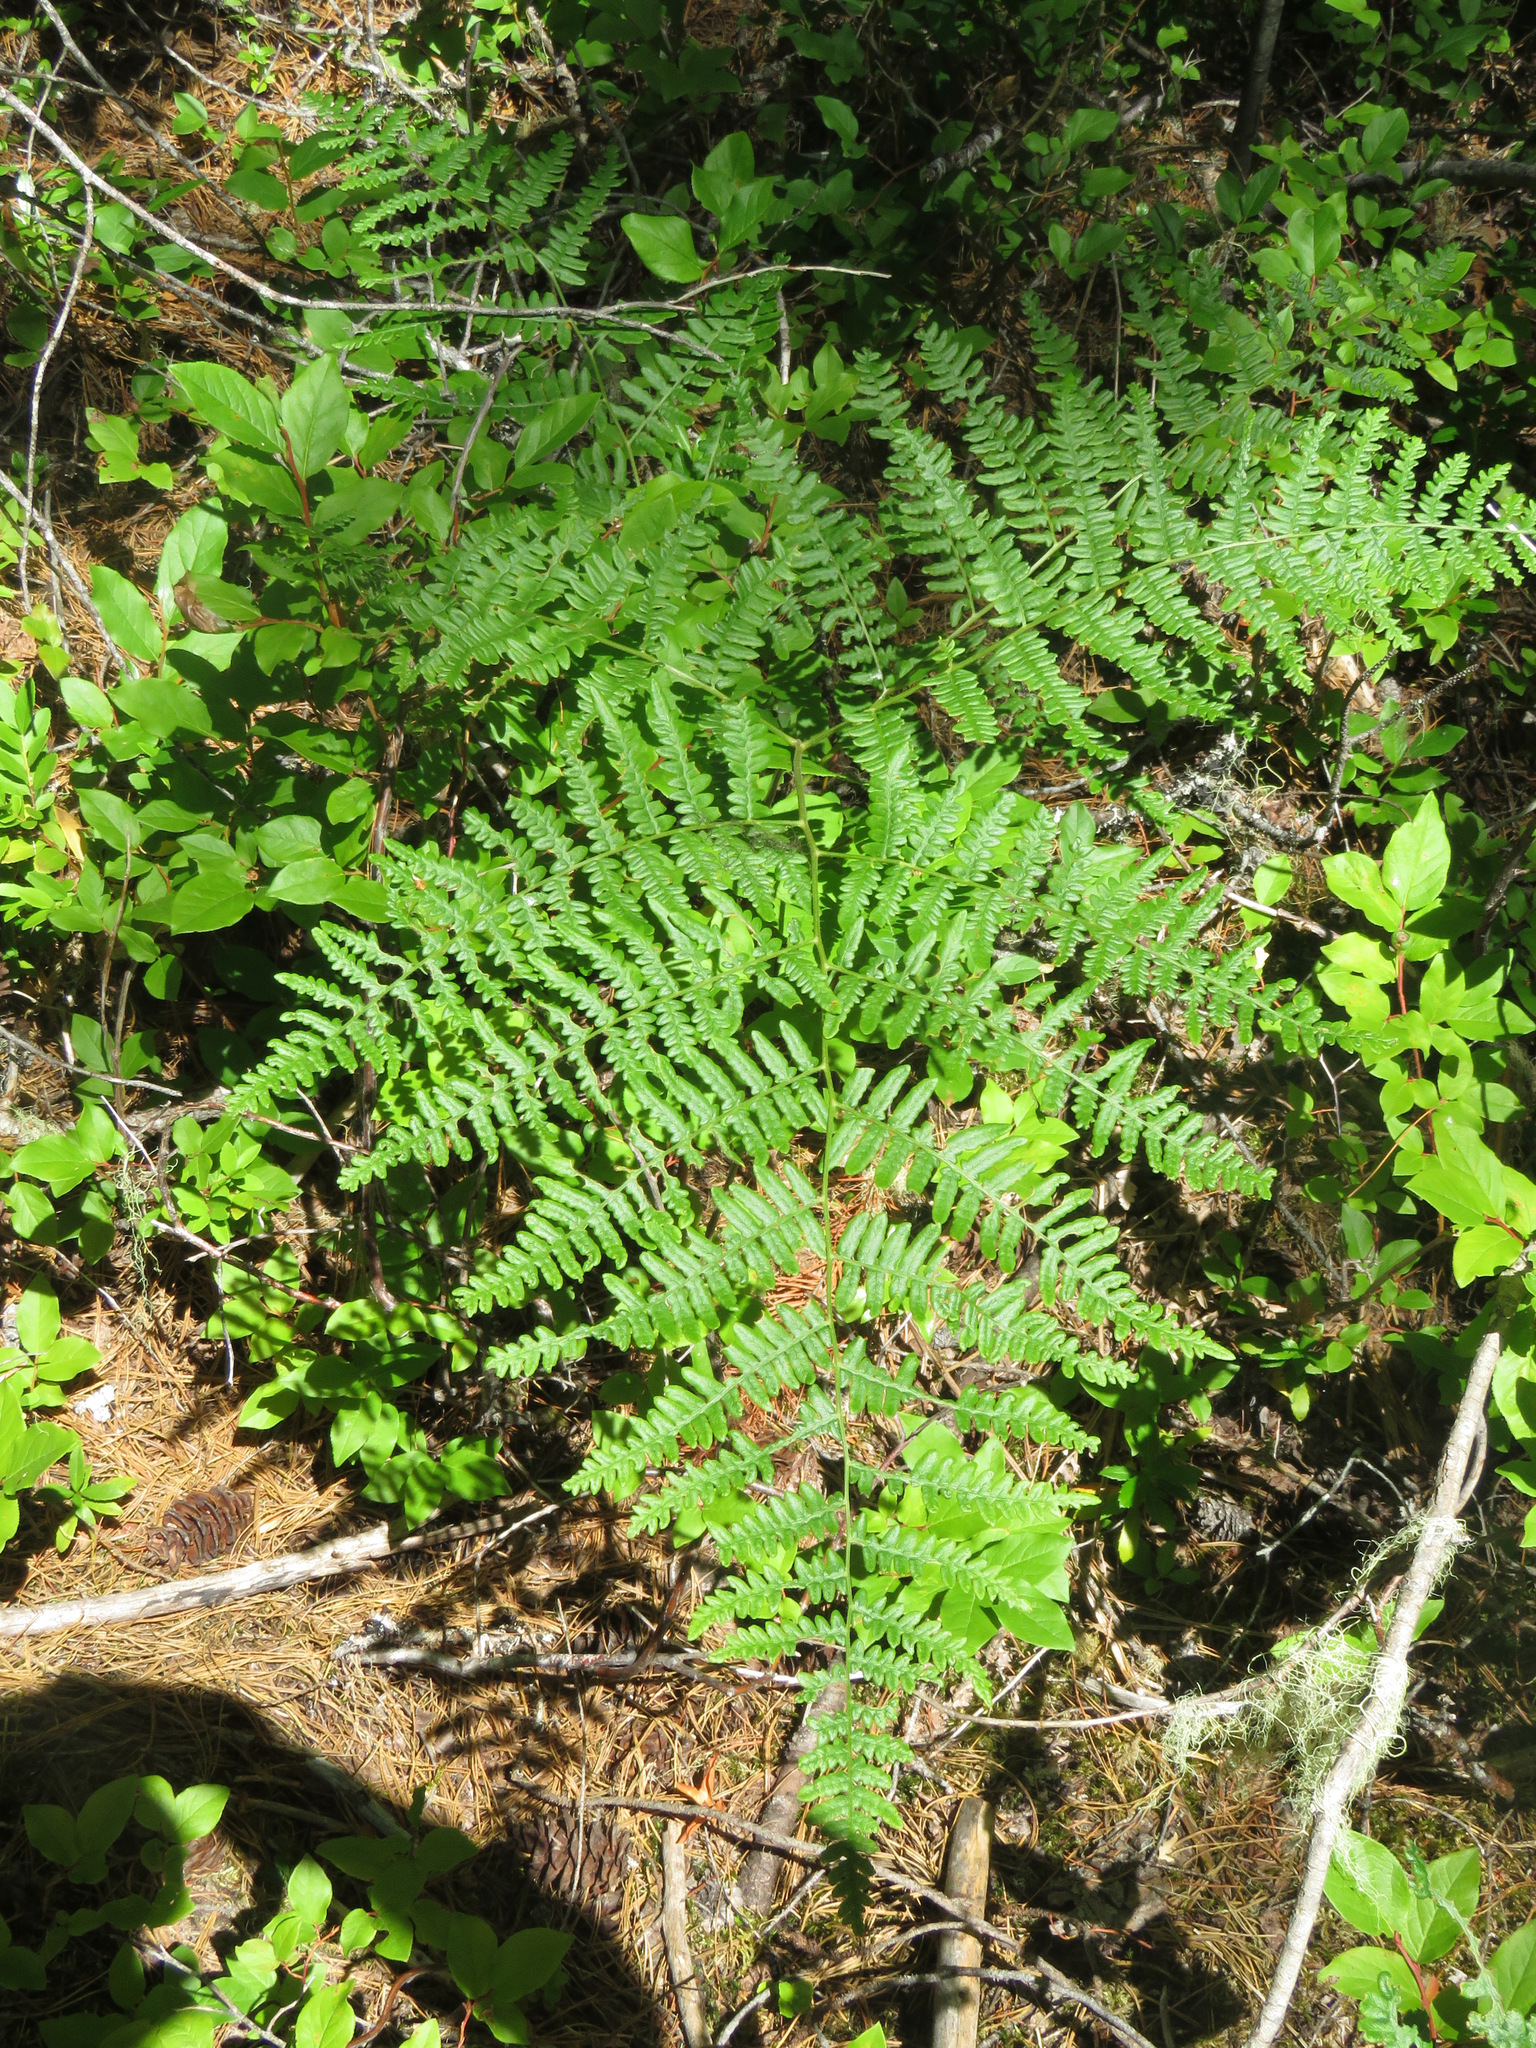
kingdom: Plantae
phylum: Tracheophyta
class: Polypodiopsida
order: Polypodiales
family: Dennstaedtiaceae
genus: Pteridium
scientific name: Pteridium aquilinum
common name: Bracken
